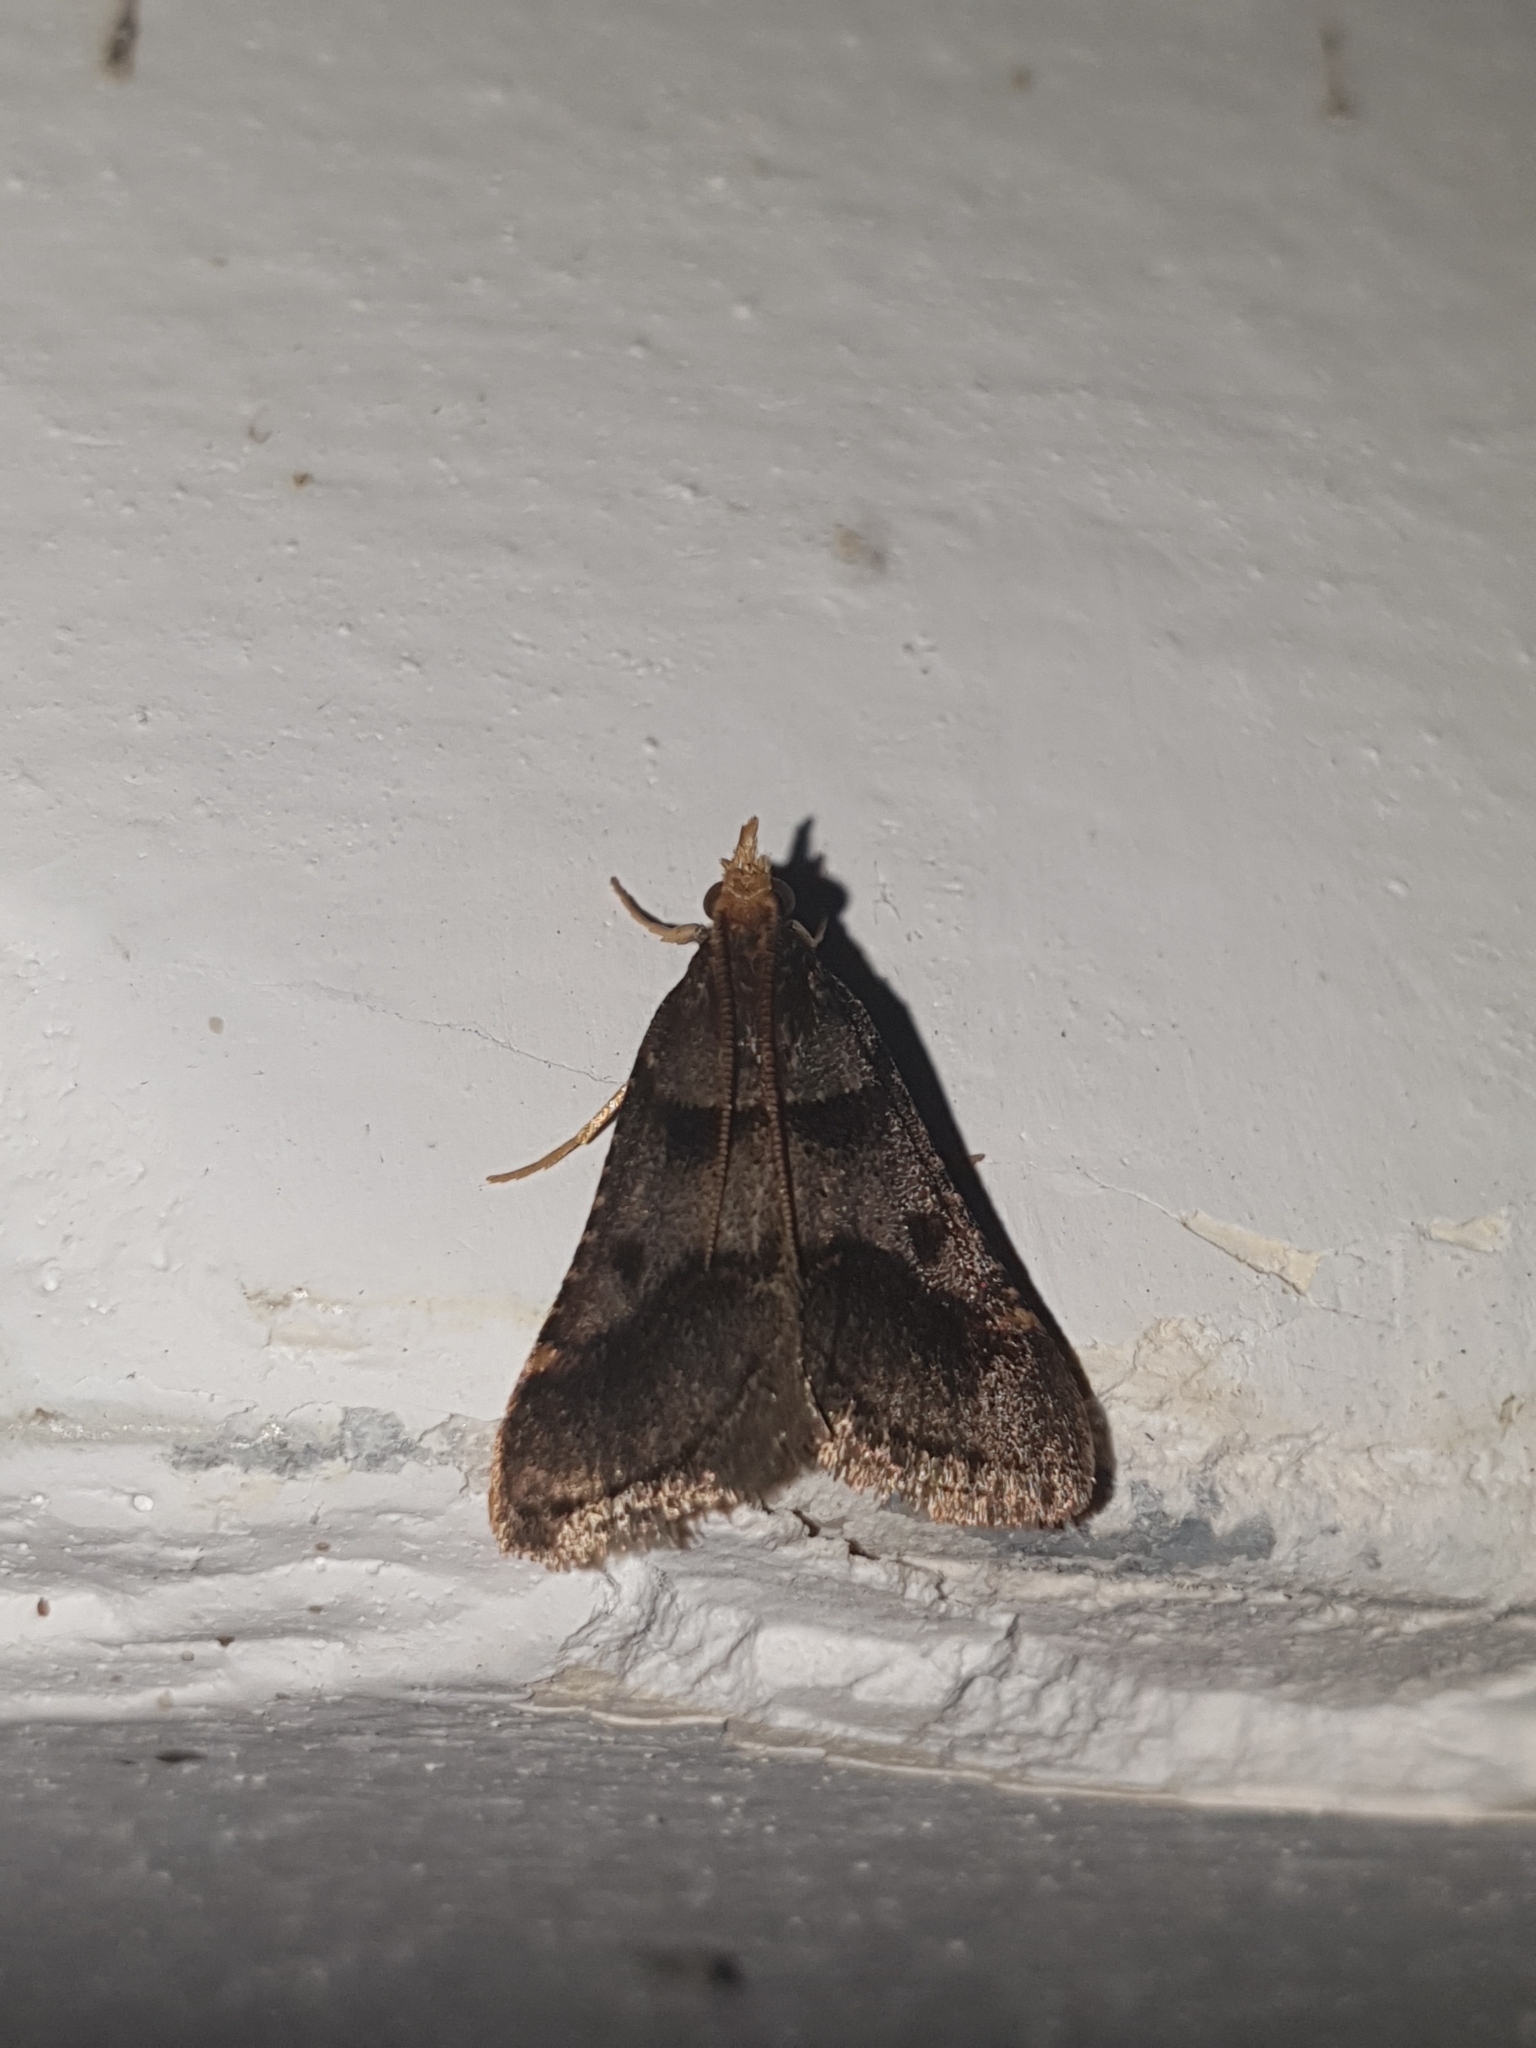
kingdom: Animalia
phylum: Arthropoda
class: Insecta
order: Lepidoptera
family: Pyralidae
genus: Stemmatophora
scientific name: Stemmatophora brunnealis
